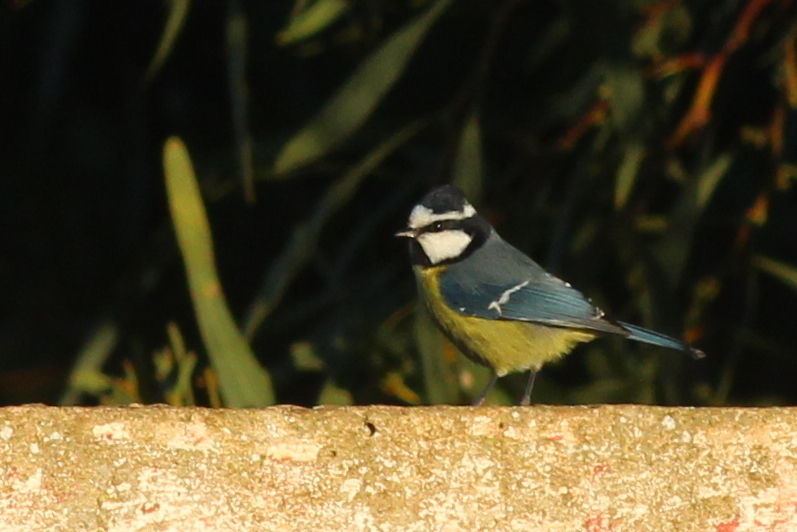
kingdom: Animalia
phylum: Chordata
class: Aves
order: Passeriformes
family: Paridae
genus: Cyanistes
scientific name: Cyanistes teneriffae
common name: African blue tit
